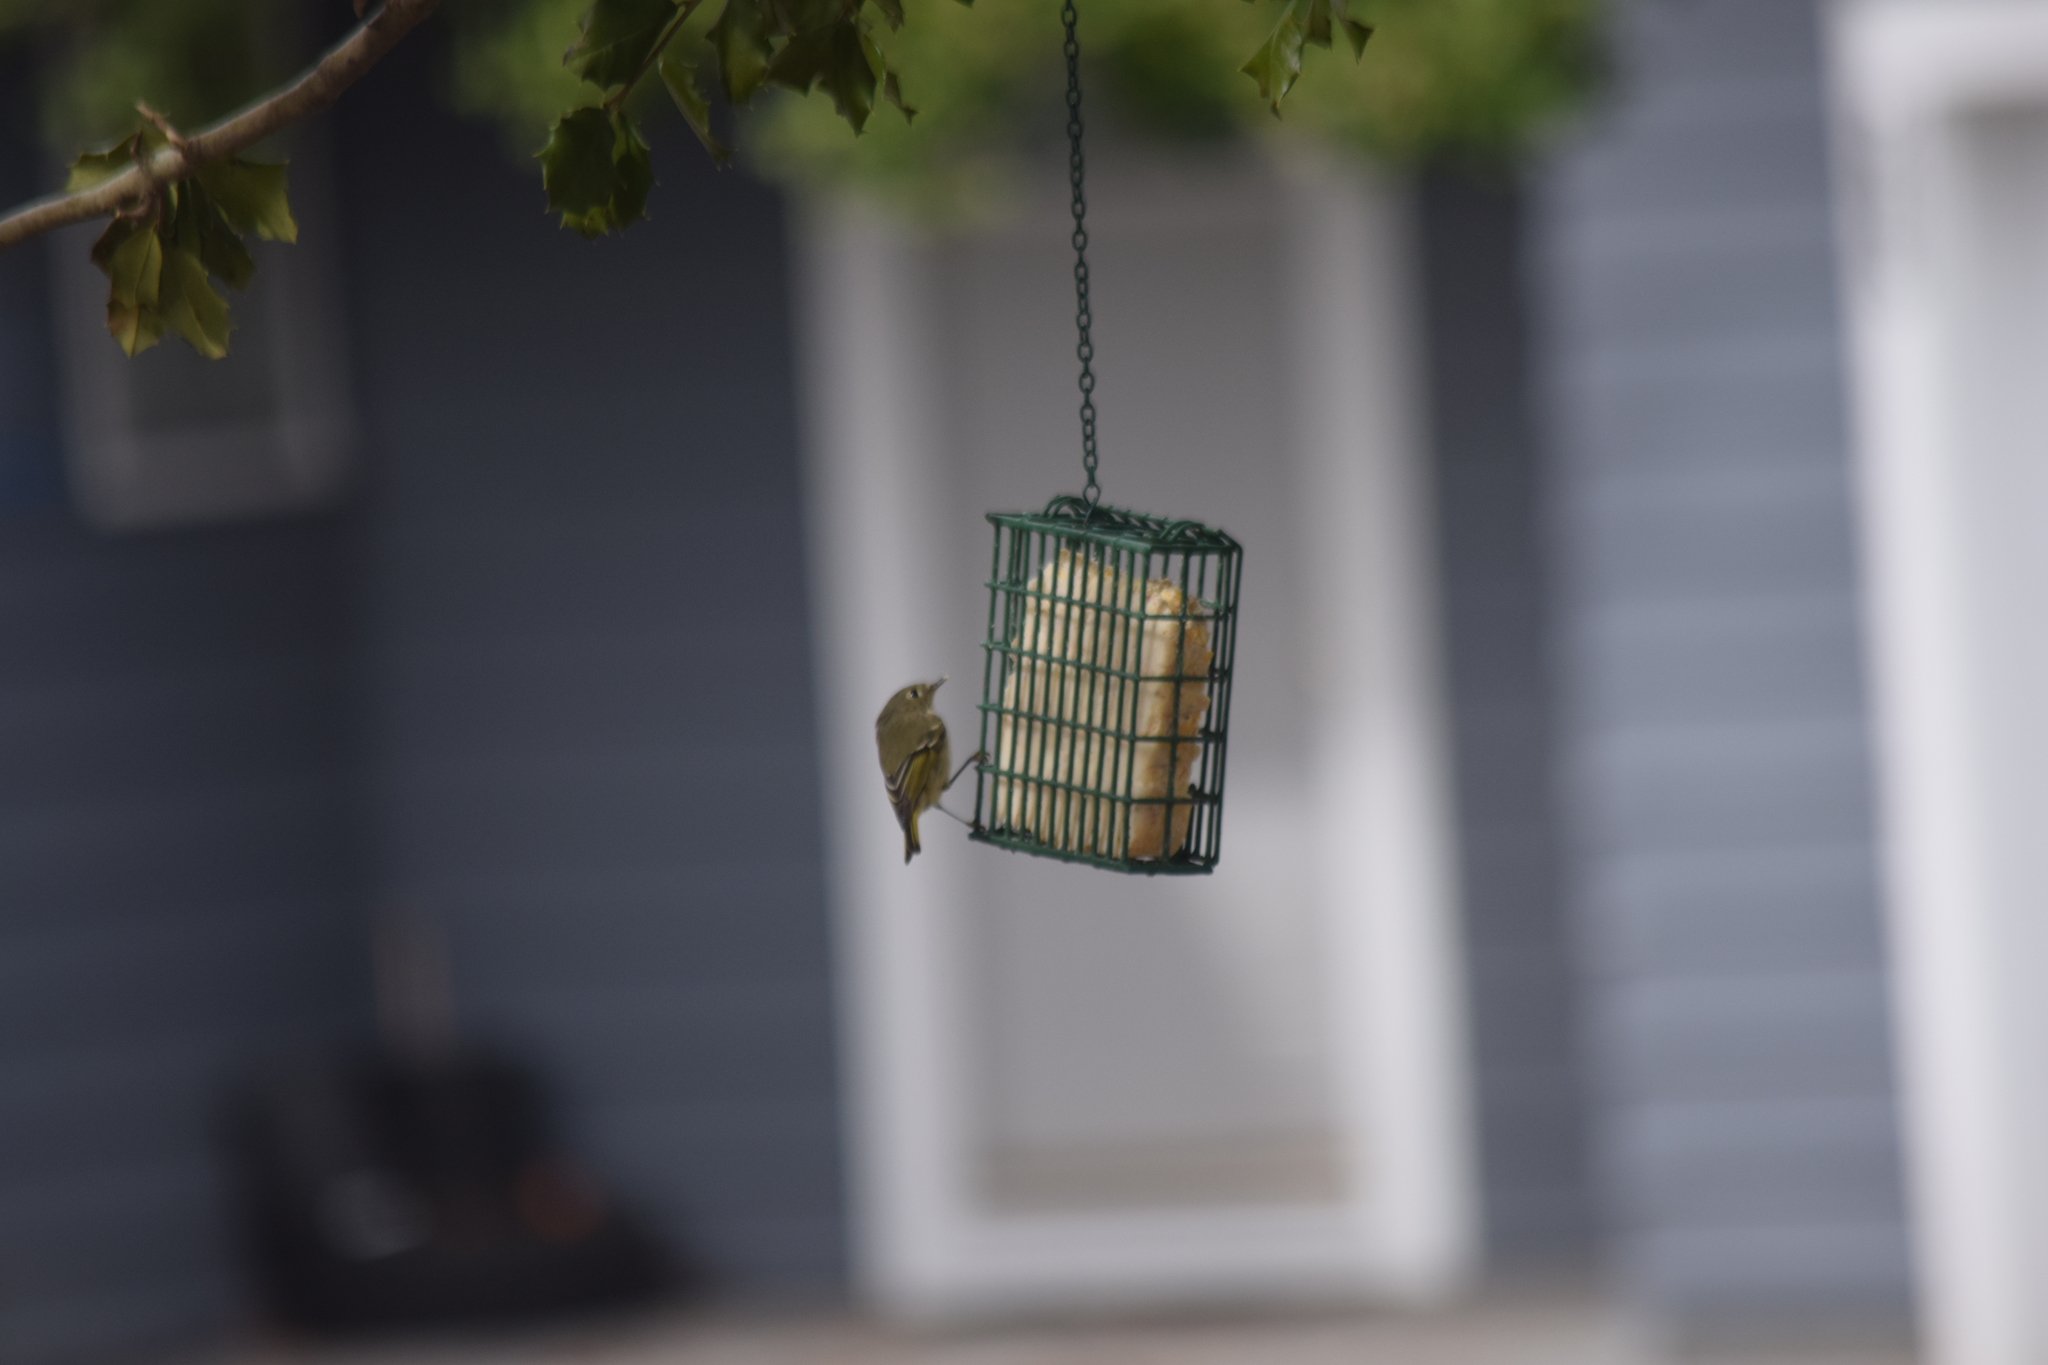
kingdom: Animalia
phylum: Chordata
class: Aves
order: Passeriformes
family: Regulidae
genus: Regulus
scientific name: Regulus calendula
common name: Ruby-crowned kinglet
